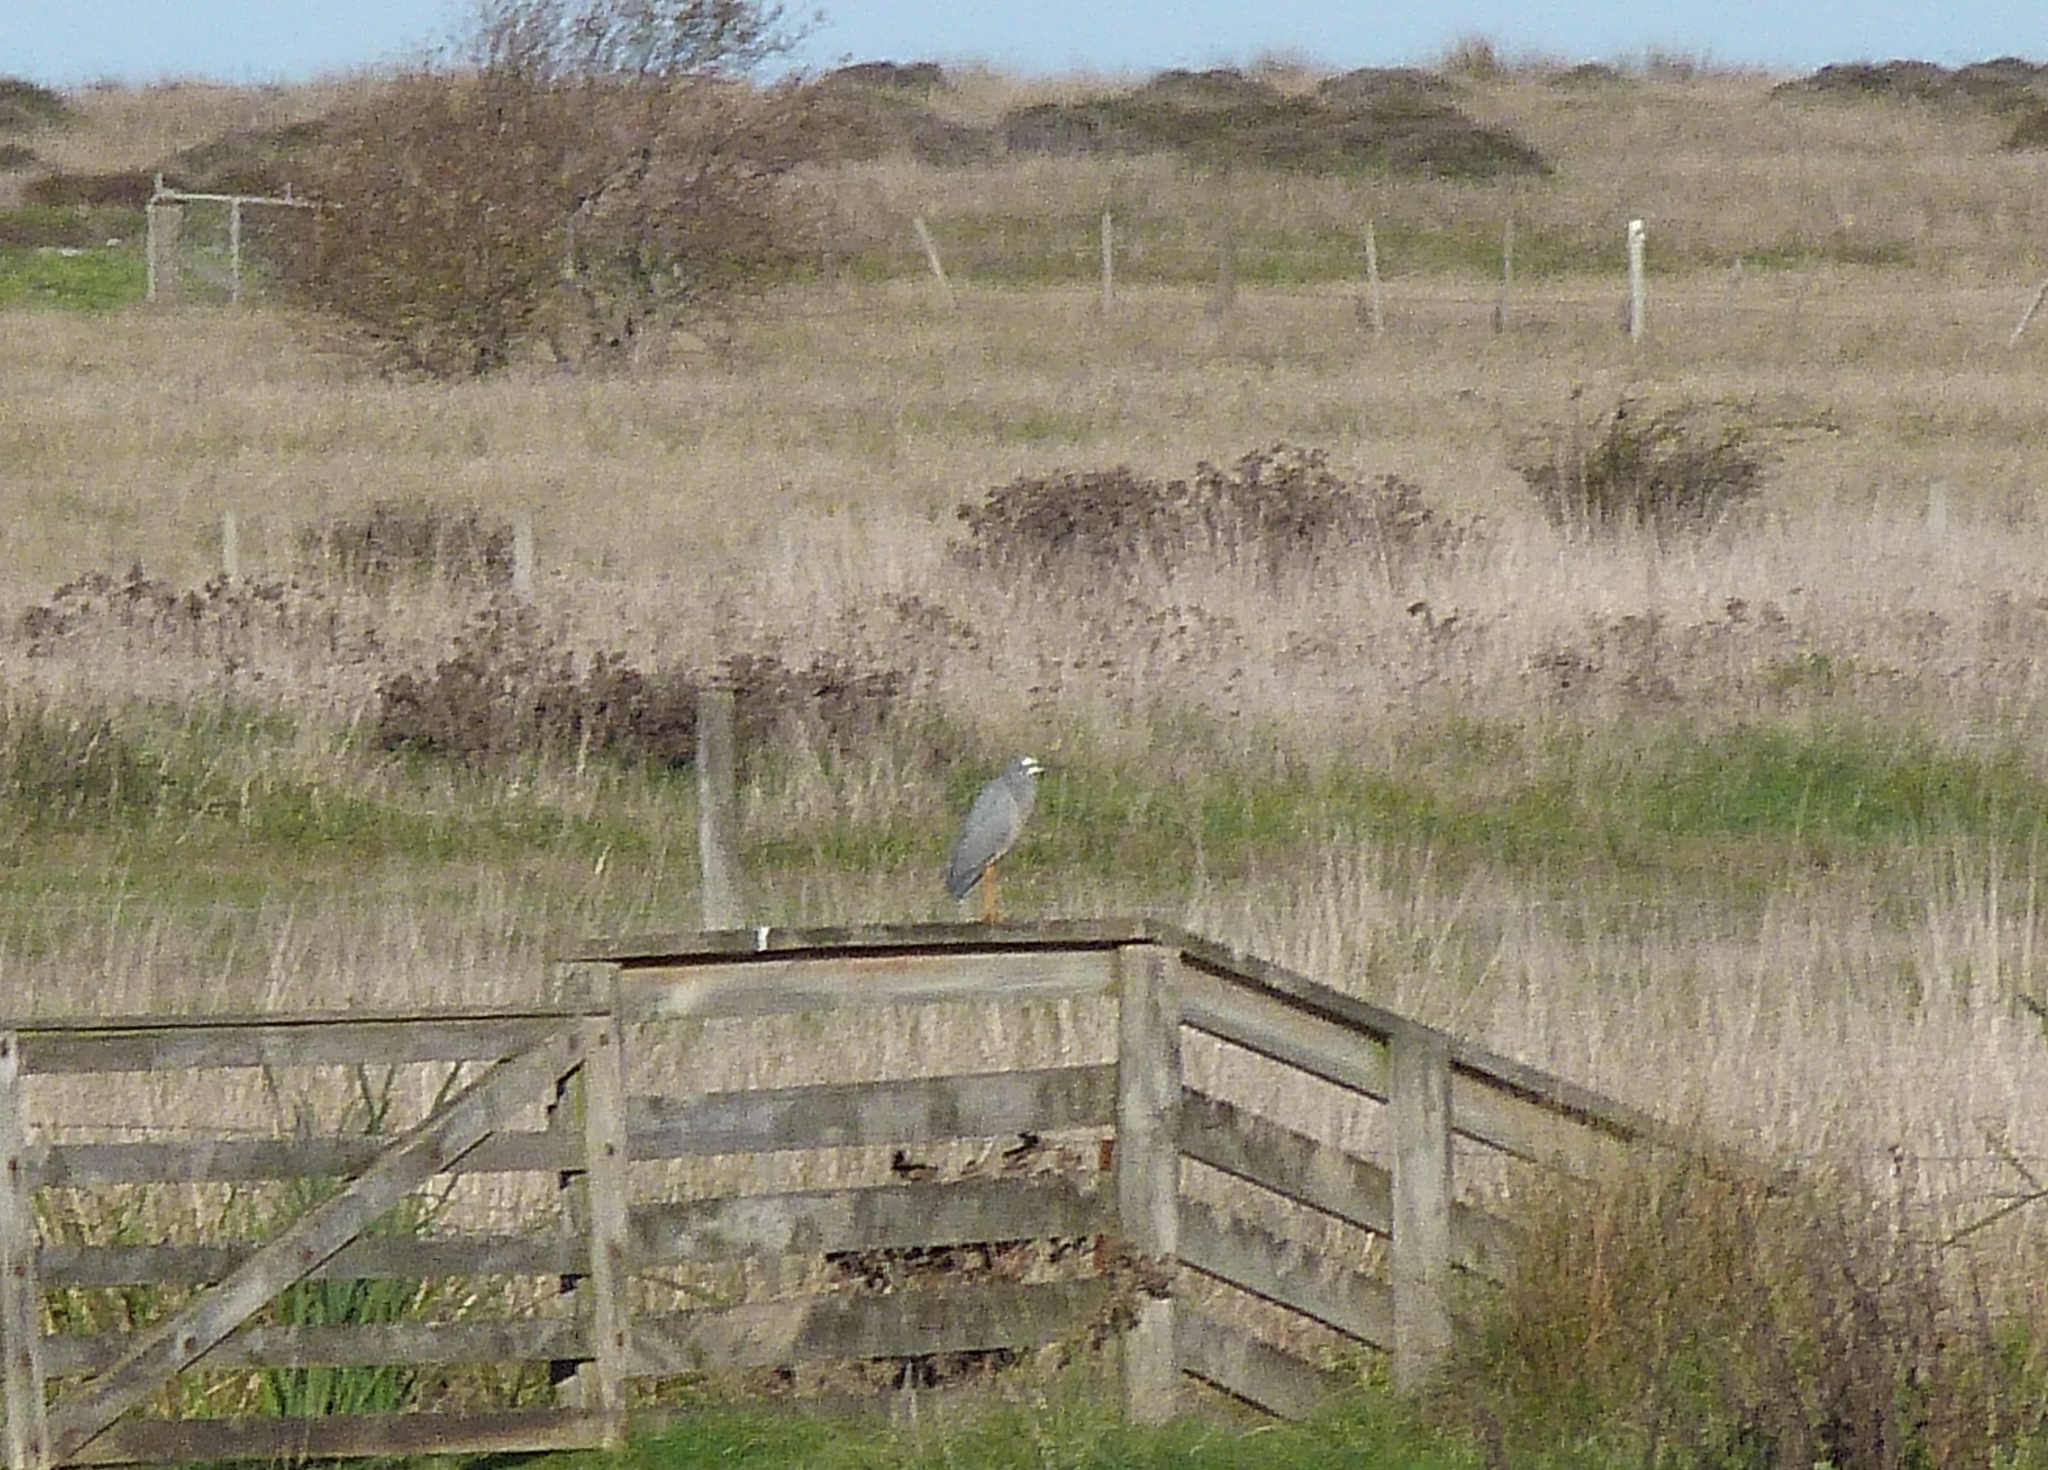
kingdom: Animalia
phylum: Chordata
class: Aves
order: Pelecaniformes
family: Ardeidae
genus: Egretta
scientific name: Egretta novaehollandiae
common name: White-faced heron
